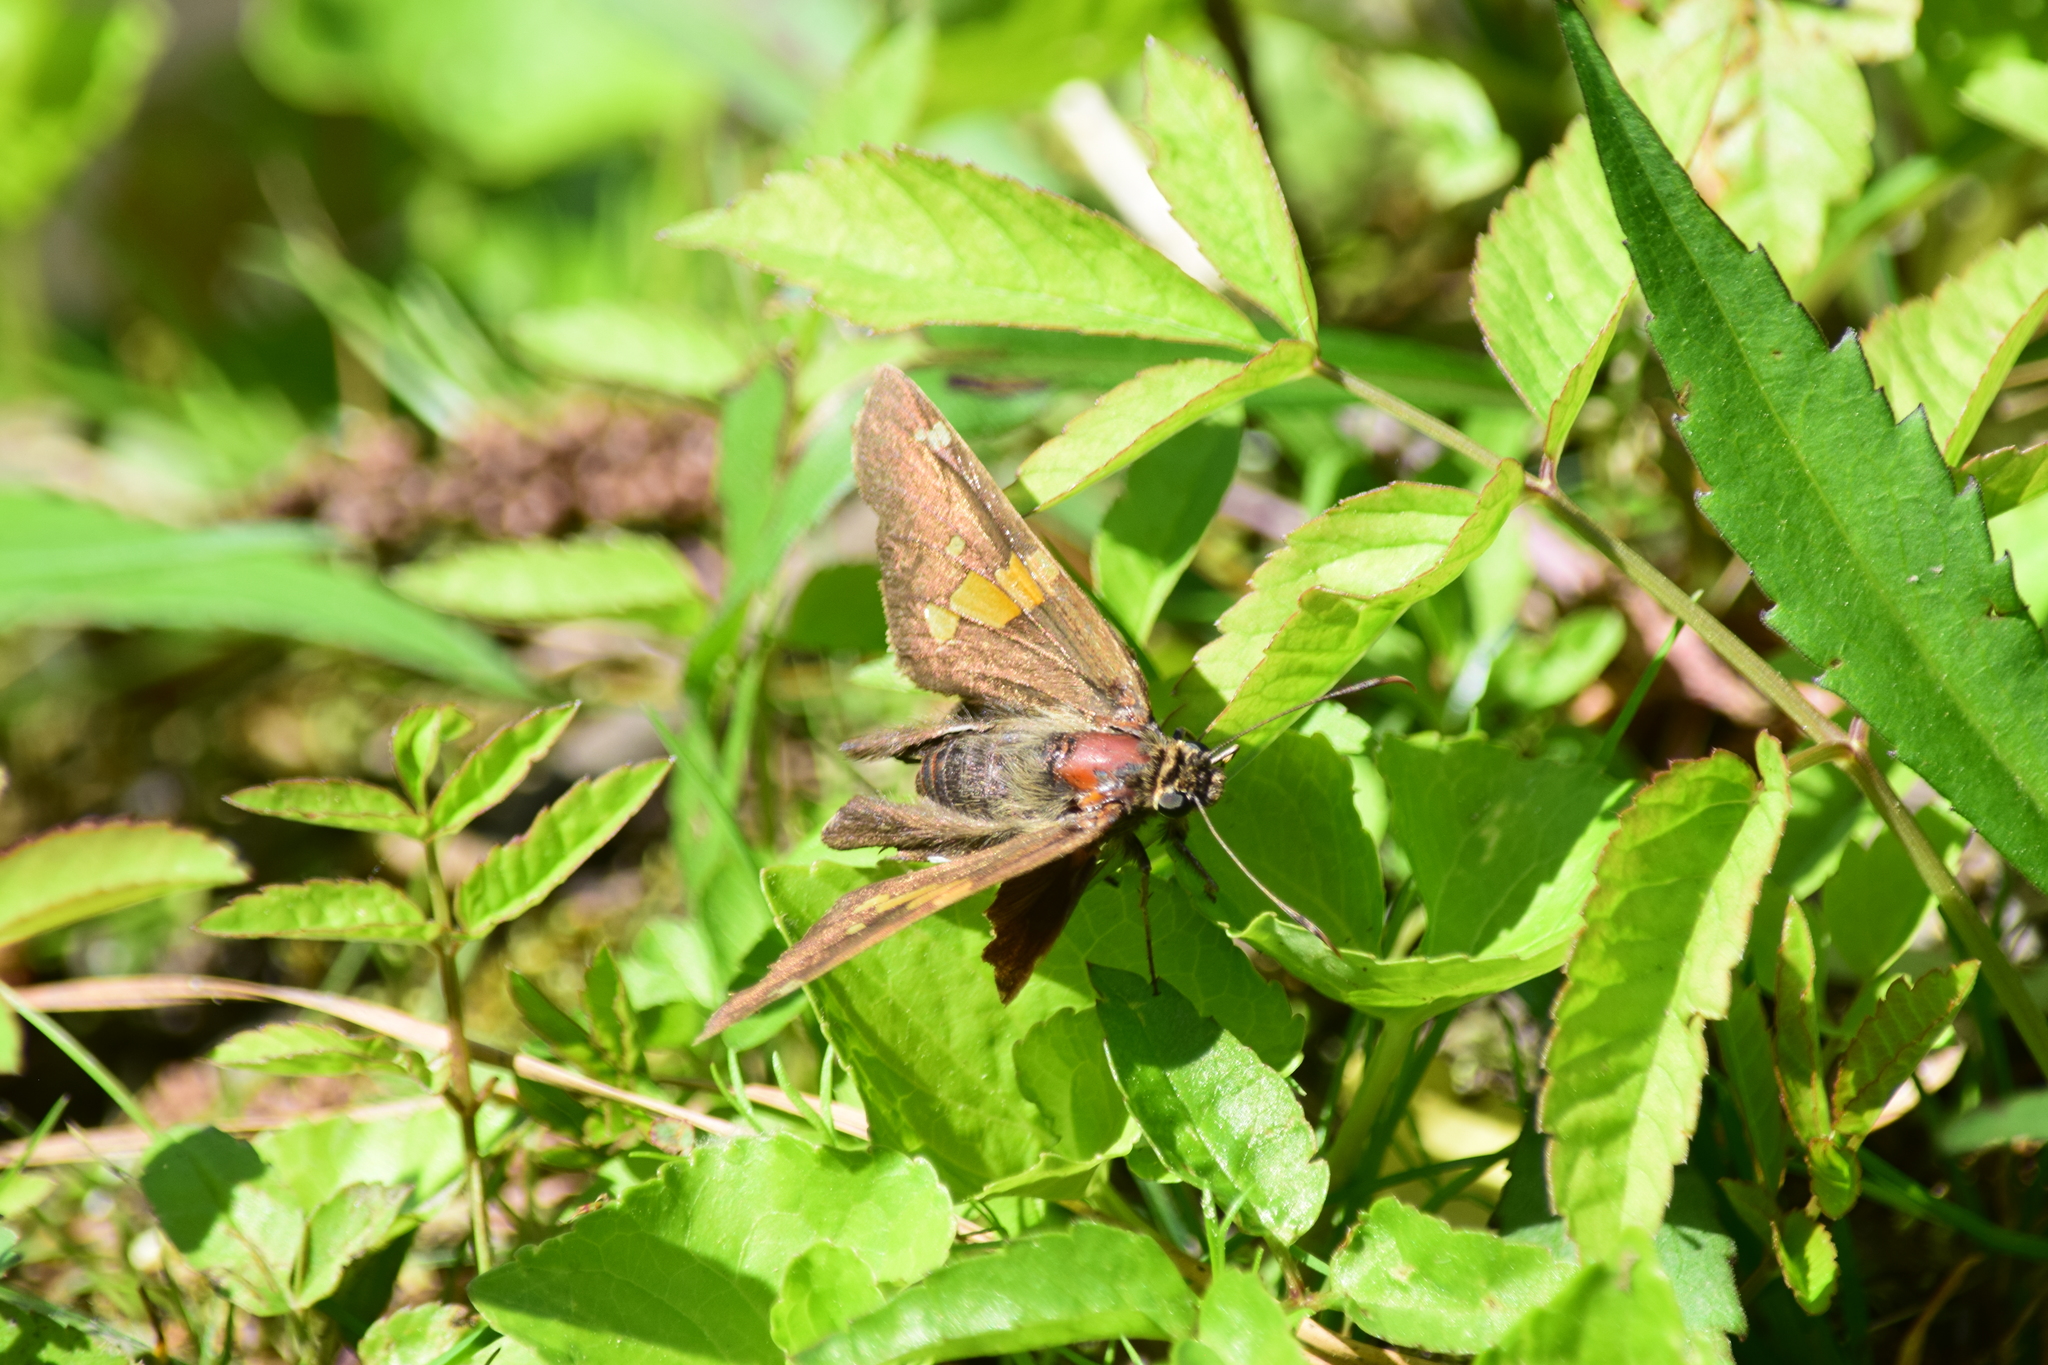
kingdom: Animalia
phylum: Arthropoda
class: Insecta
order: Lepidoptera
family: Hesperiidae
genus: Epargyreus
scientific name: Epargyreus clarus
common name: Silver-spotted skipper
